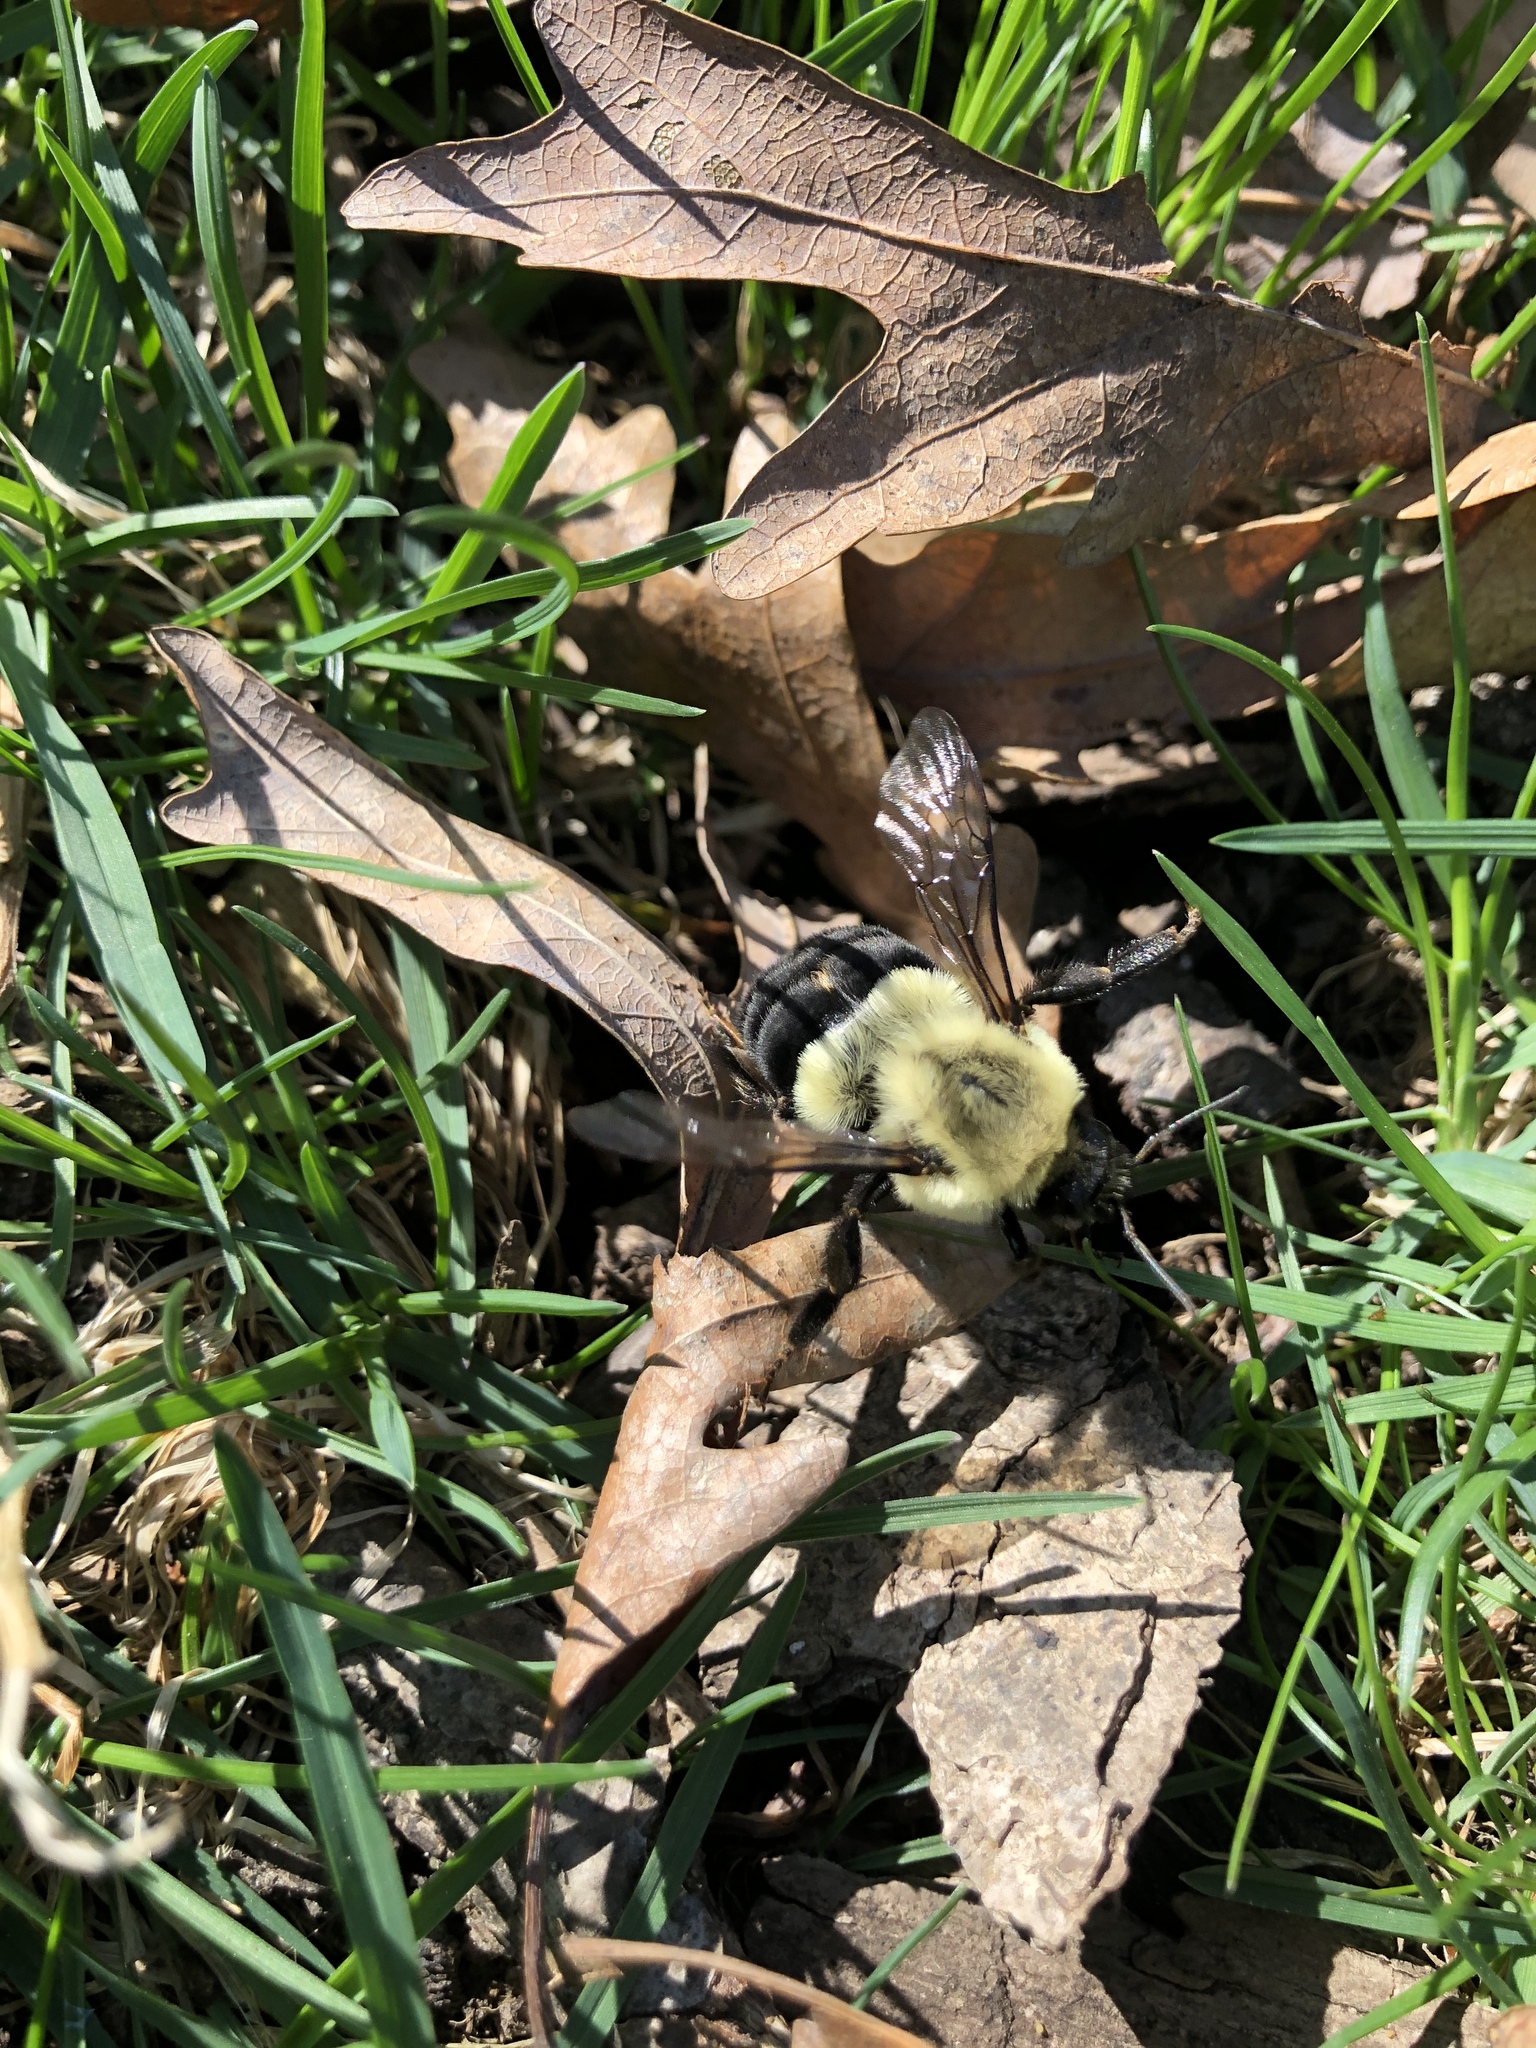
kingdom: Animalia
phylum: Arthropoda
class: Insecta
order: Hymenoptera
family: Apidae
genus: Bombus
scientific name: Bombus impatiens
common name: Common eastern bumble bee
